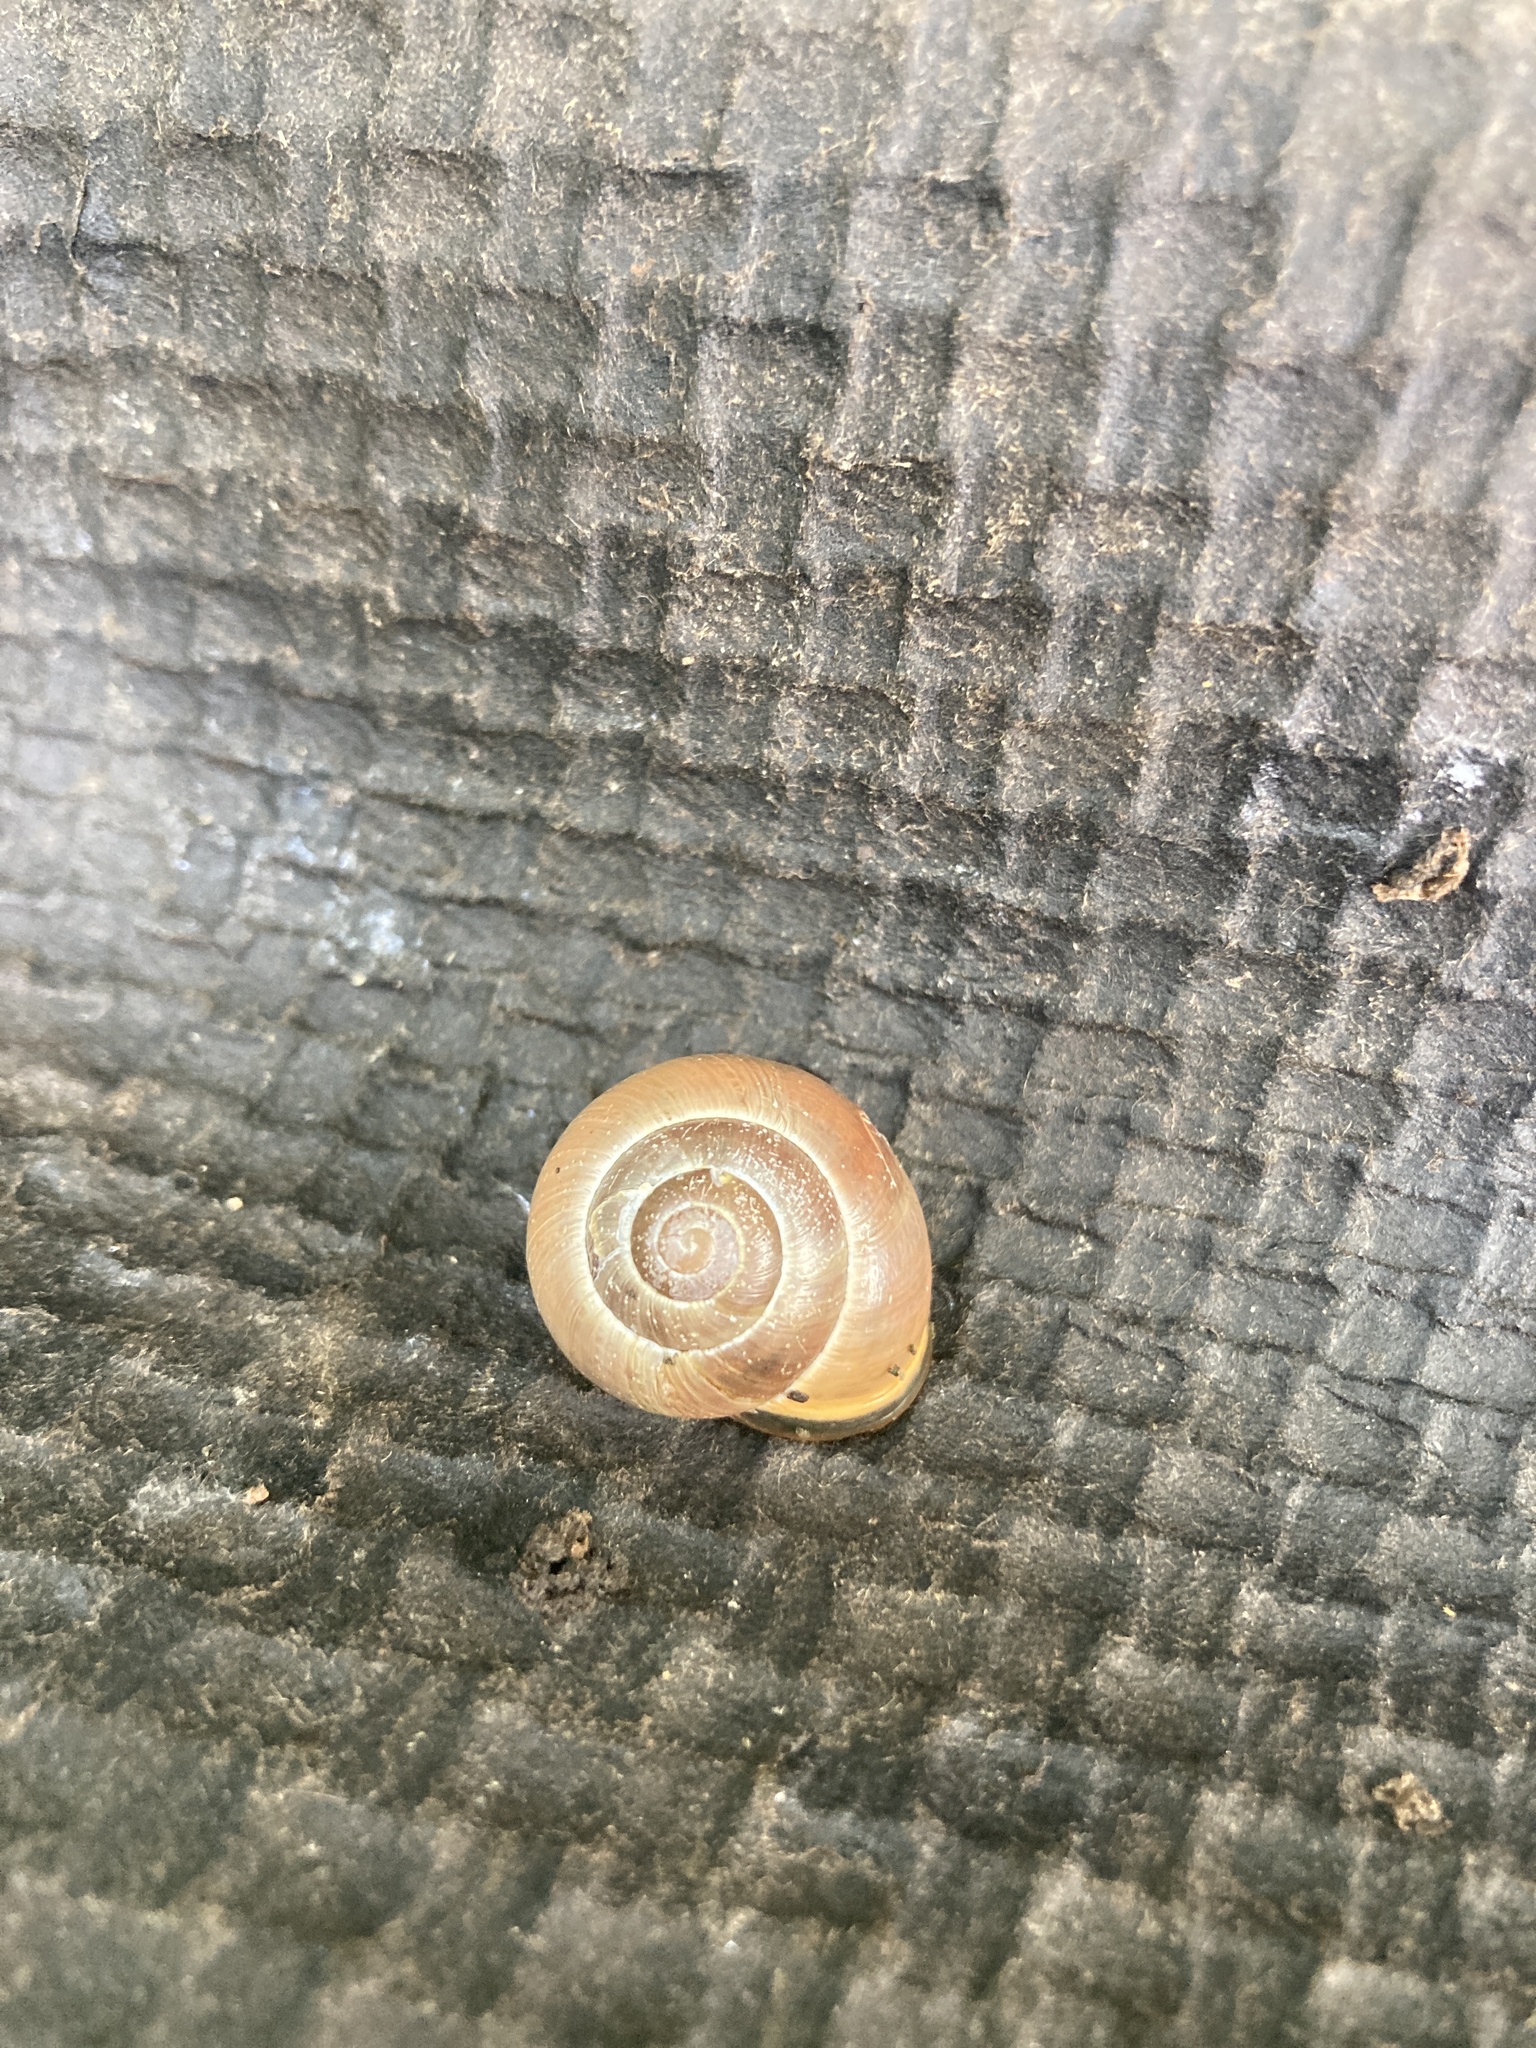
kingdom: Animalia
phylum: Mollusca
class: Gastropoda
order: Stylommatophora
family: Helicidae
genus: Cepaea
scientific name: Cepaea nemoralis
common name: Grovesnail
